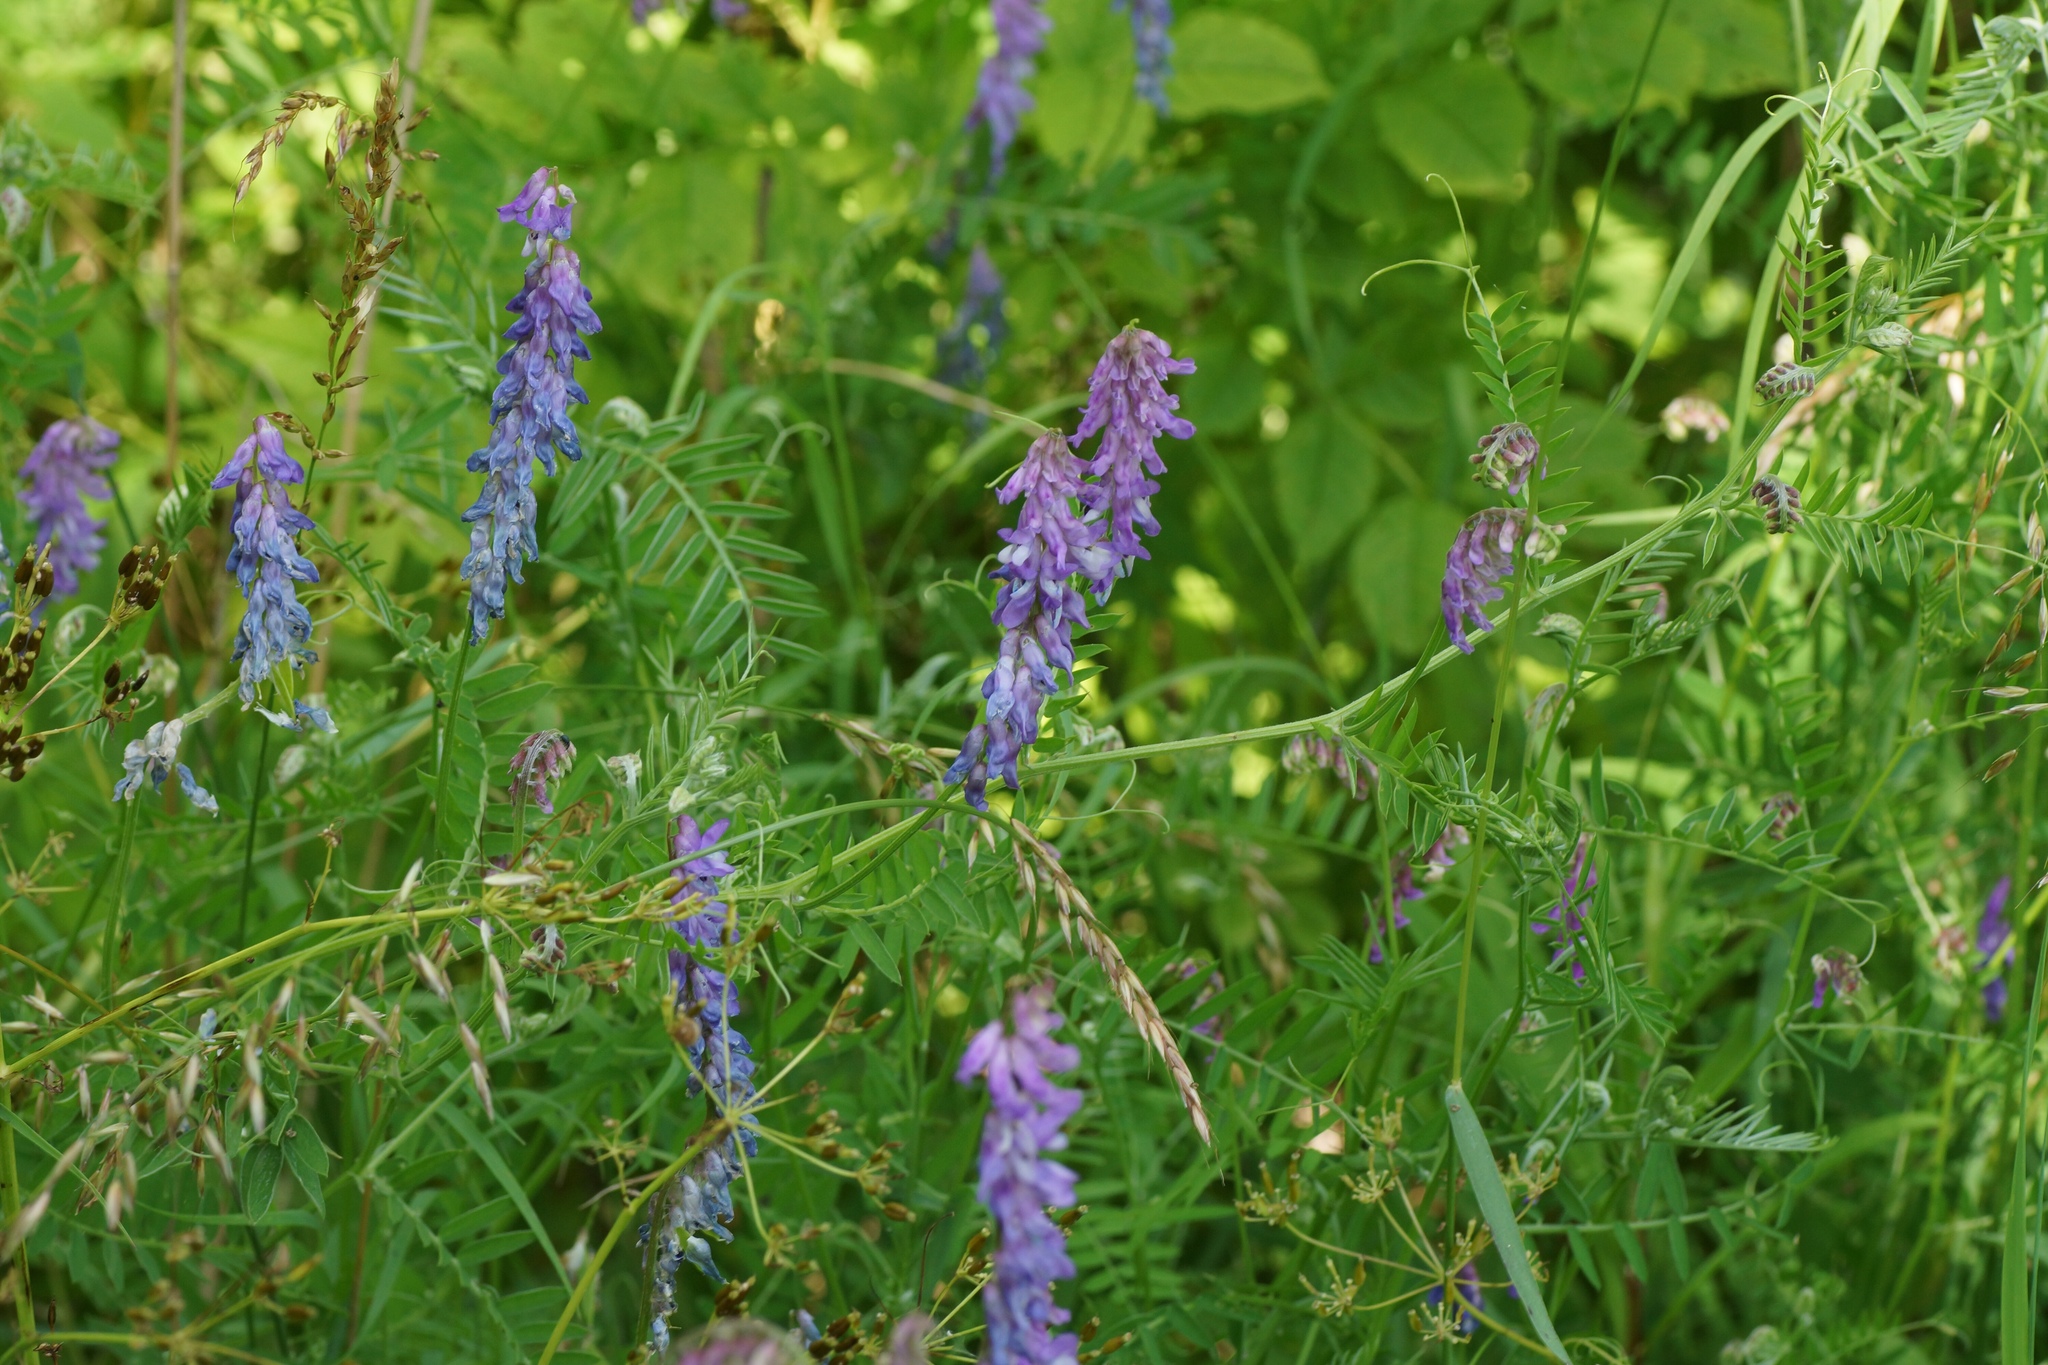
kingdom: Plantae
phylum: Tracheophyta
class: Magnoliopsida
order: Fabales
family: Fabaceae
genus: Vicia
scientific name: Vicia cracca
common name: Bird vetch
